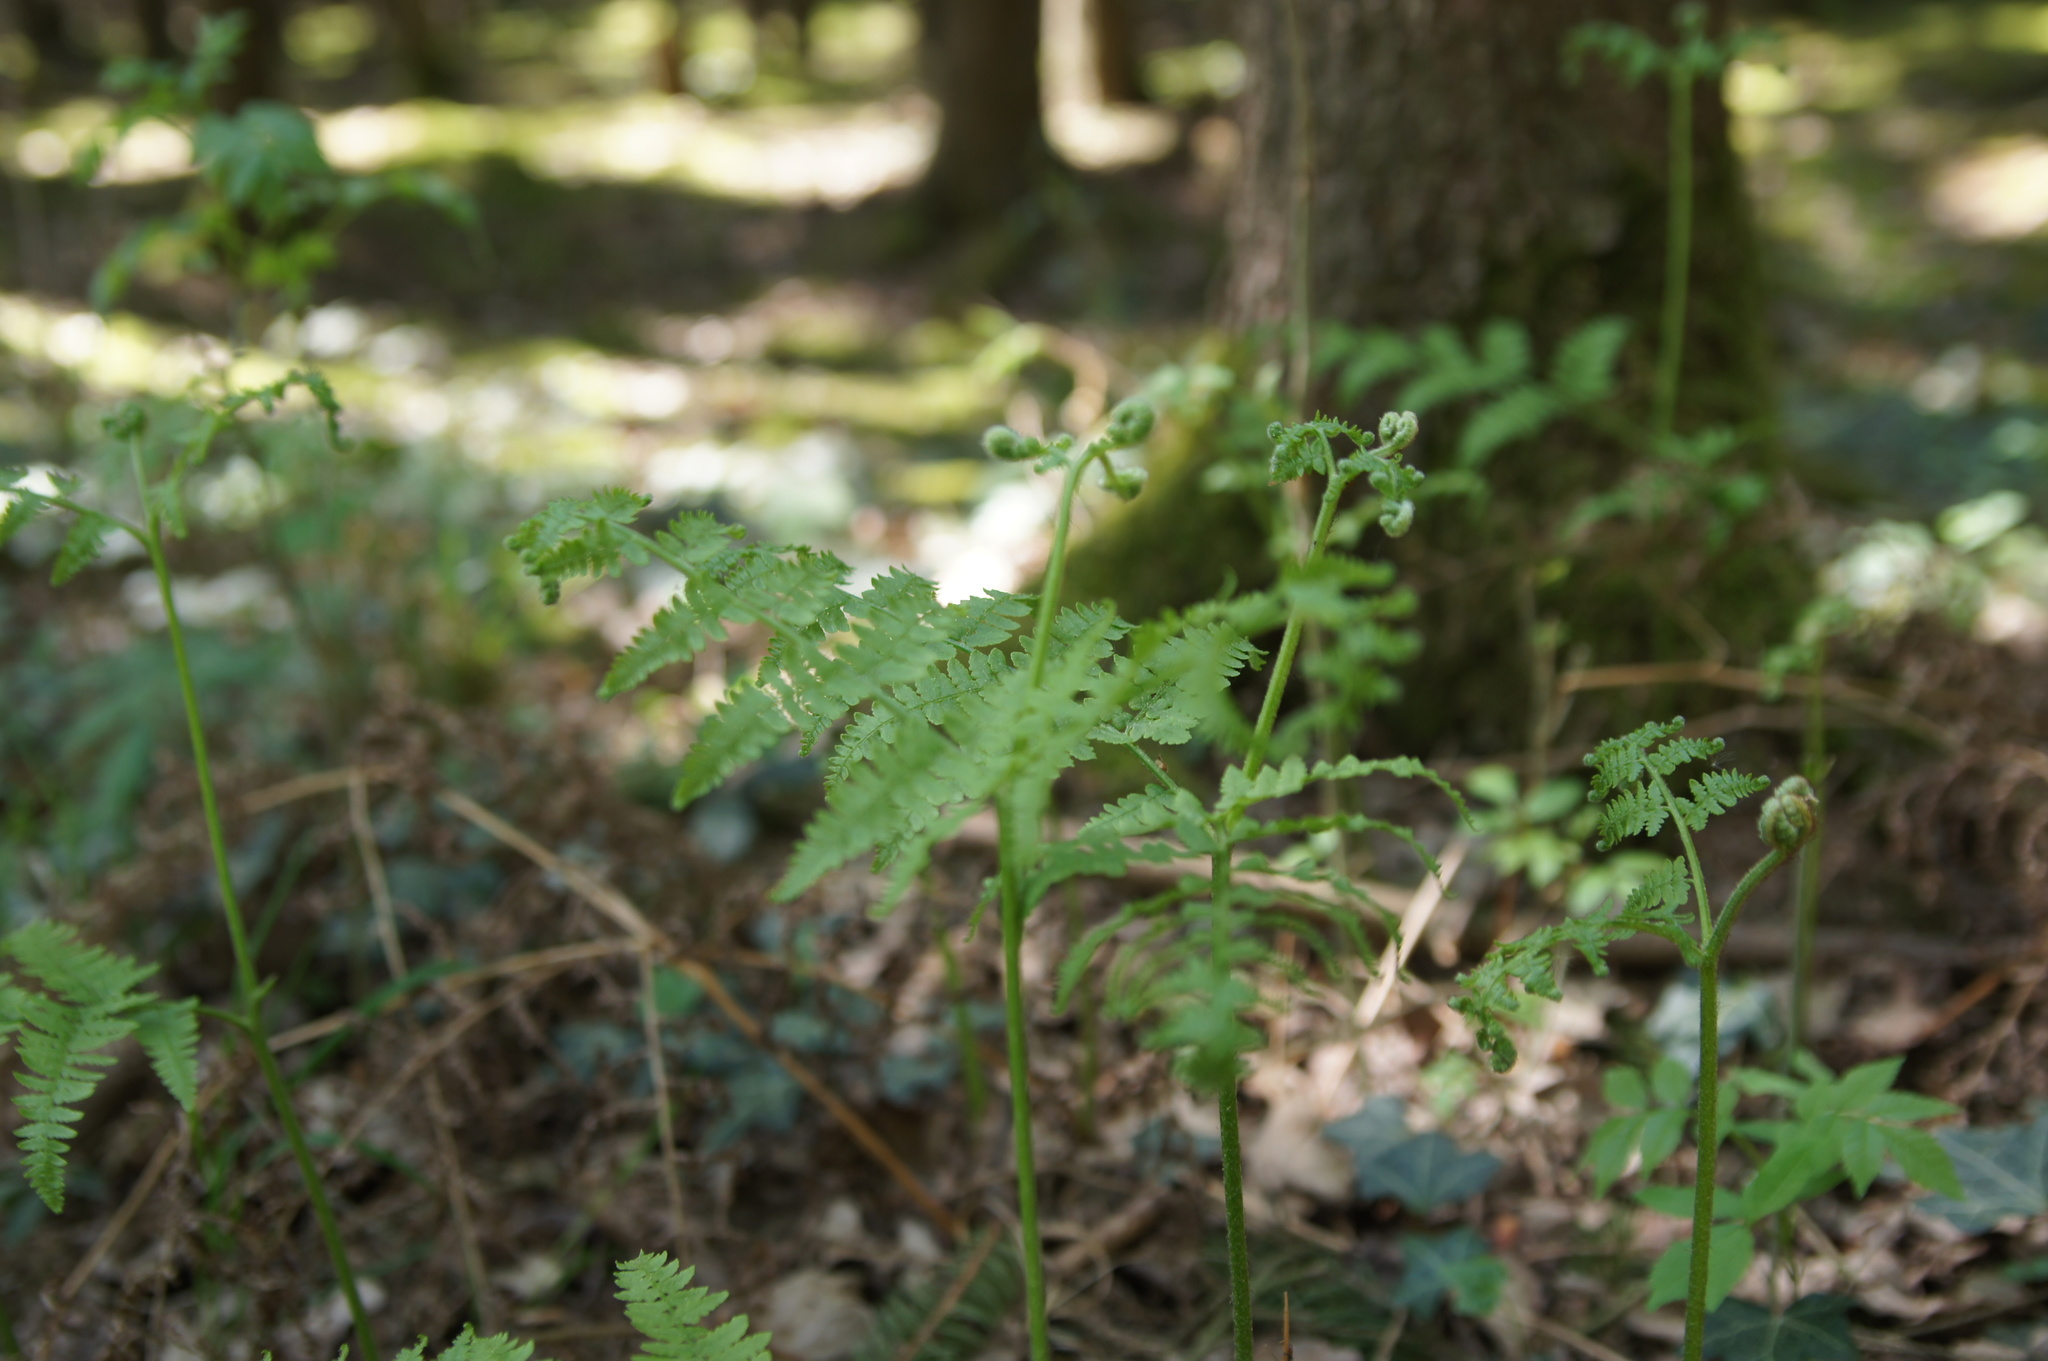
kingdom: Plantae
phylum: Tracheophyta
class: Polypodiopsida
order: Polypodiales
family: Dennstaedtiaceae
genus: Pteridium
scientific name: Pteridium aquilinum
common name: Bracken
